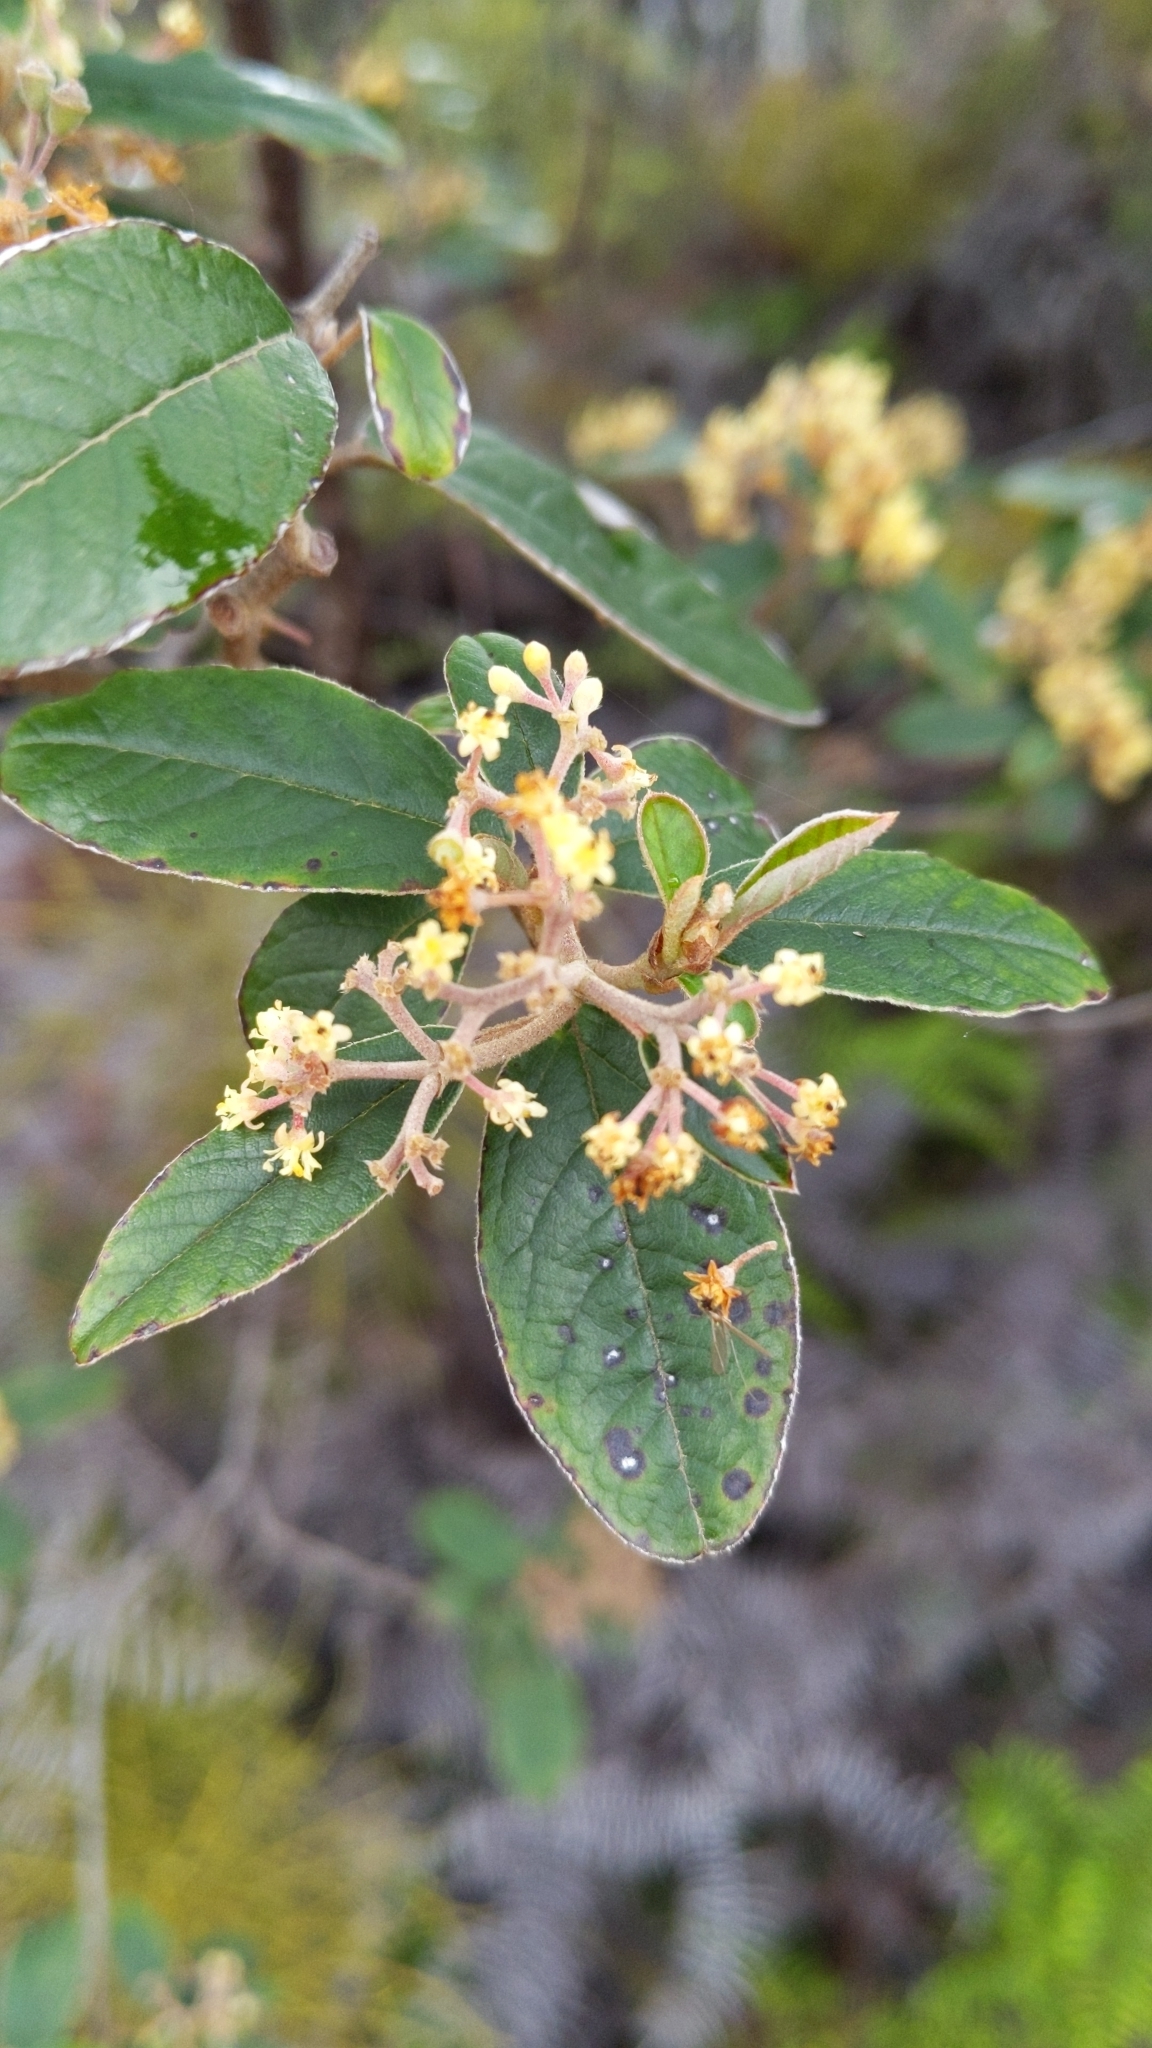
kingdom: Plantae
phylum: Tracheophyta
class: Magnoliopsida
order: Rosales
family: Rhamnaceae
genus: Pomaderris
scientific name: Pomaderris kumeraho
